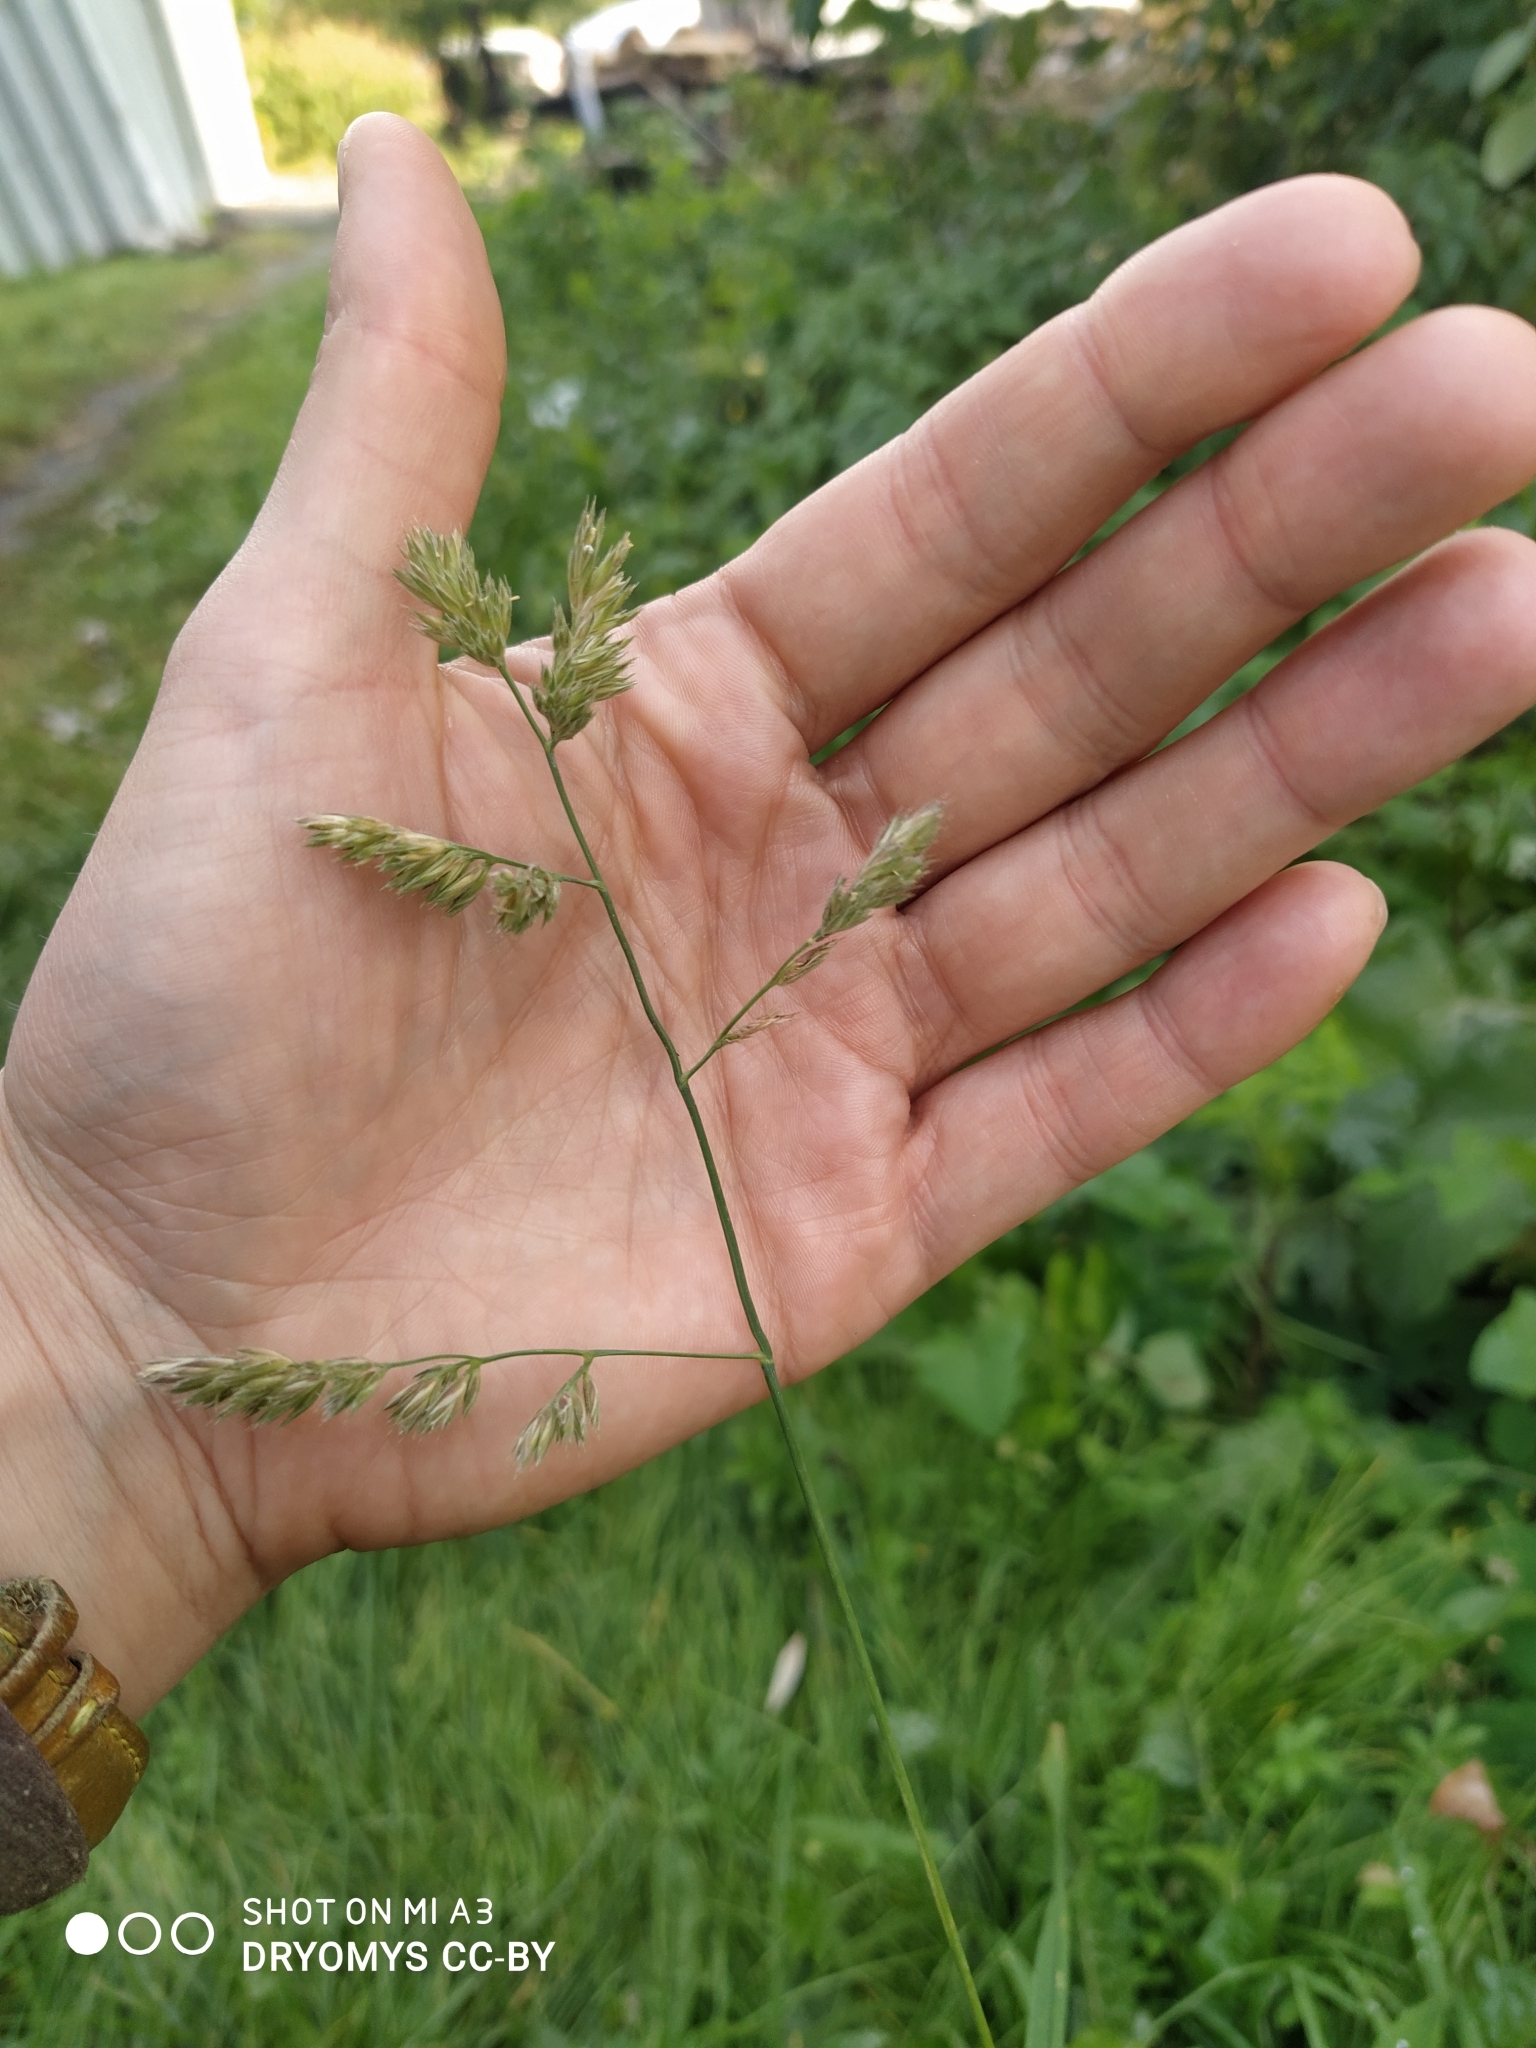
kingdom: Plantae
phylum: Tracheophyta
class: Liliopsida
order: Poales
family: Poaceae
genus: Dactylis
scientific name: Dactylis glomerata
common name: Orchardgrass
